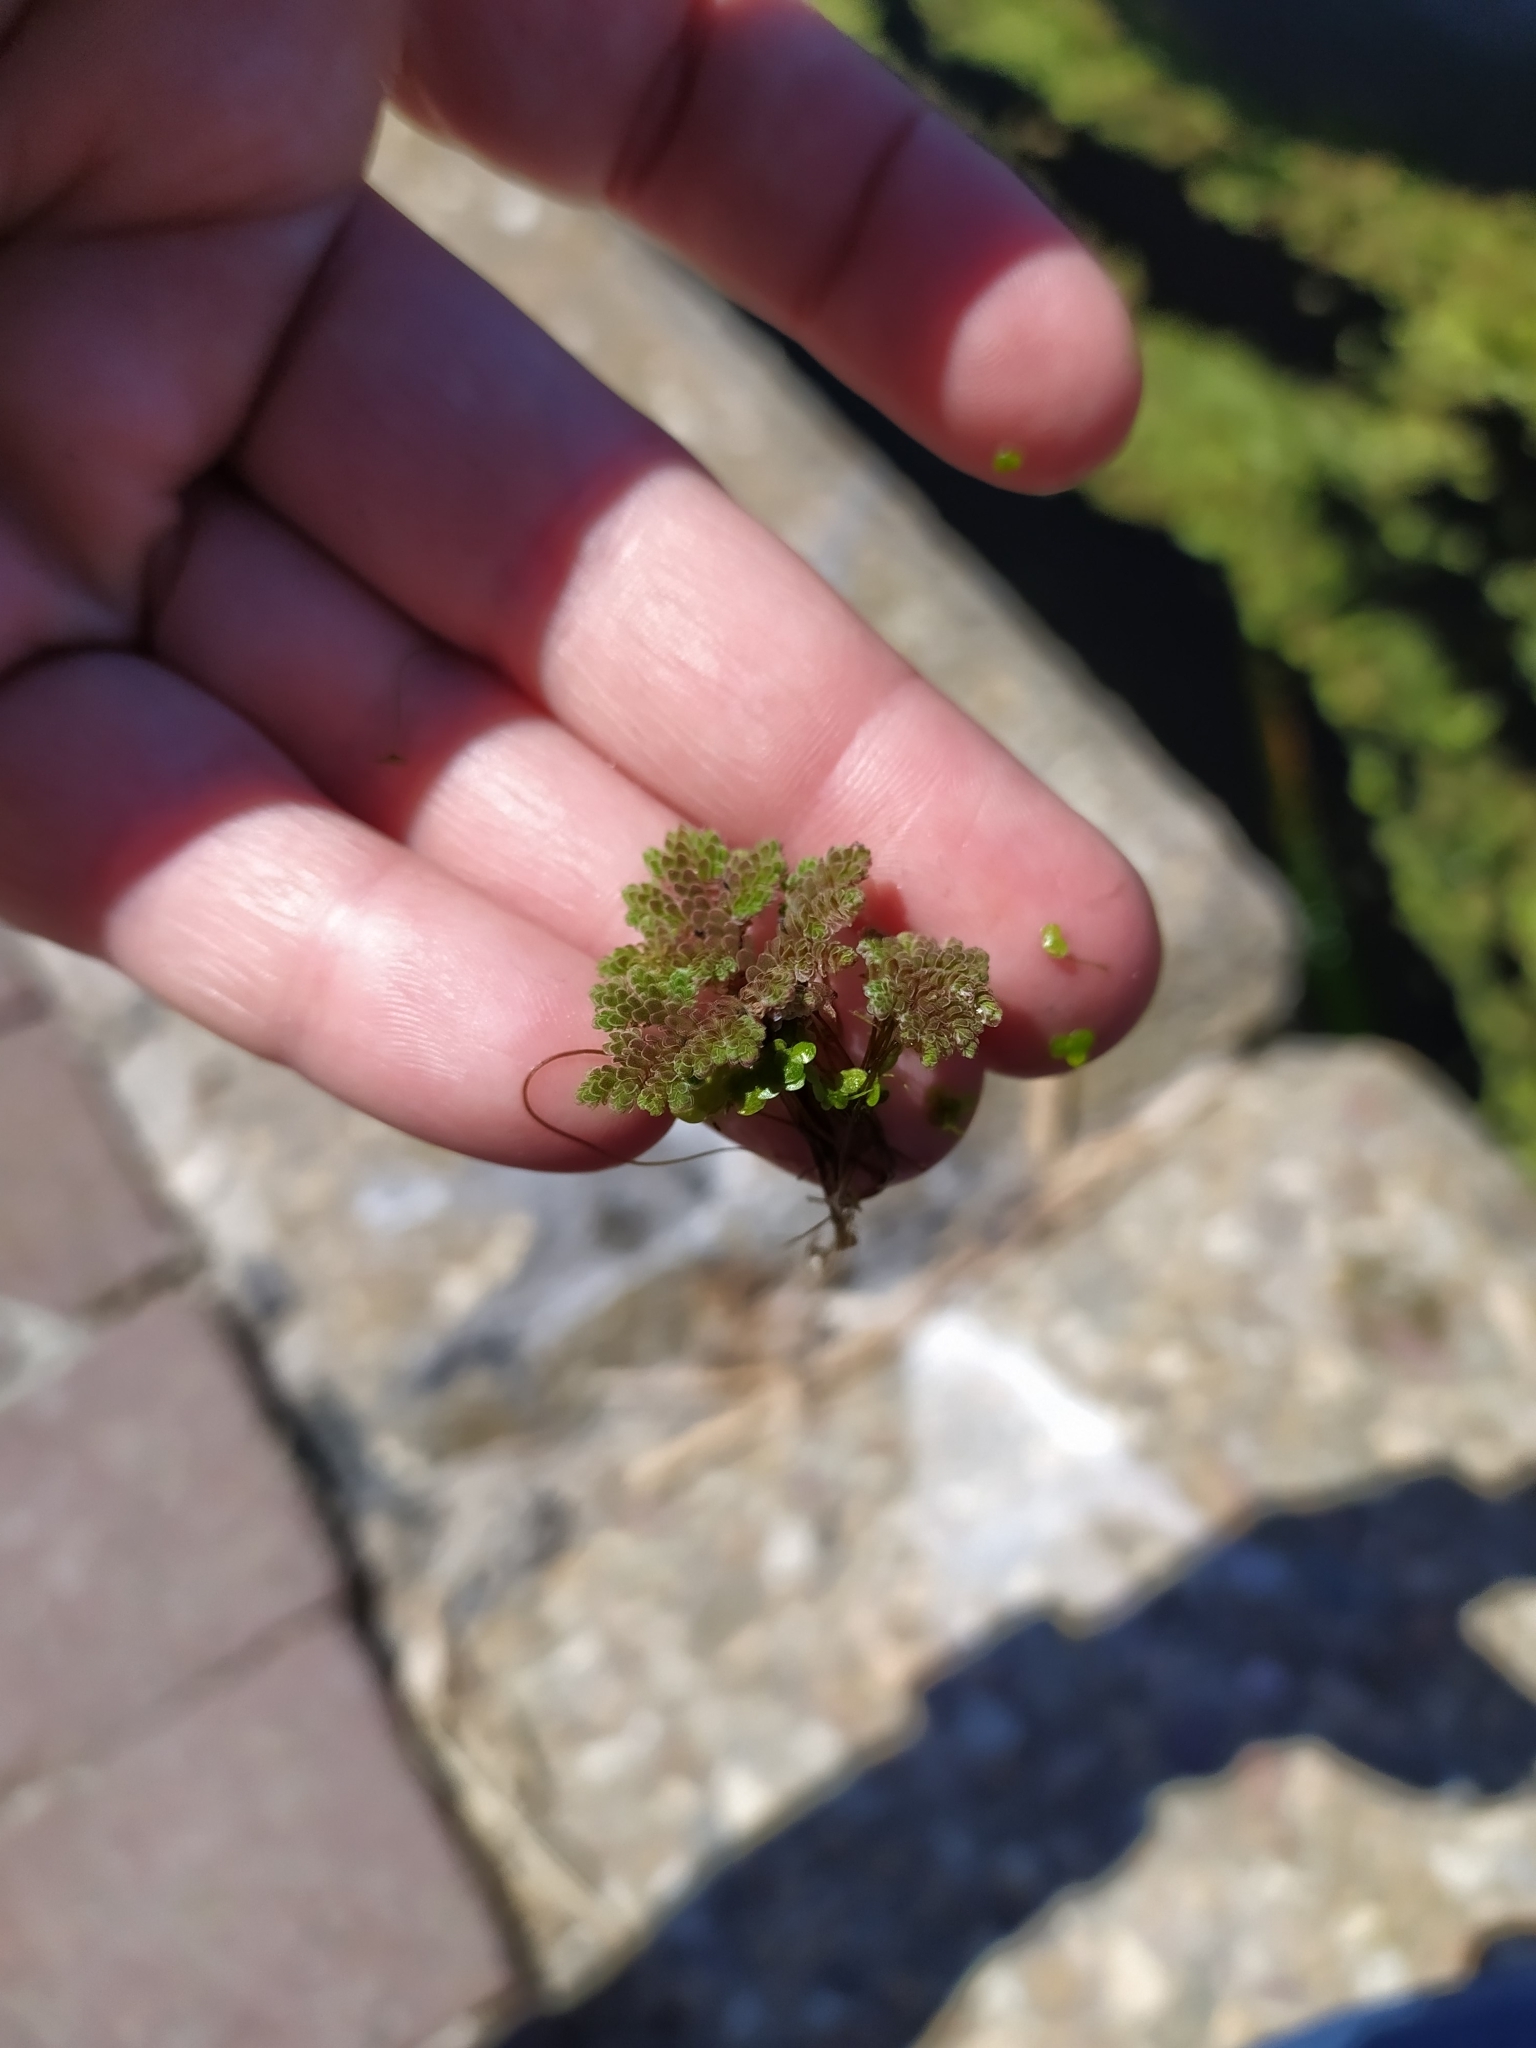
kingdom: Plantae
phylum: Tracheophyta
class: Polypodiopsida
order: Salviniales
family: Salviniaceae
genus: Azolla
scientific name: Azolla filiculoides
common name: Water fern
